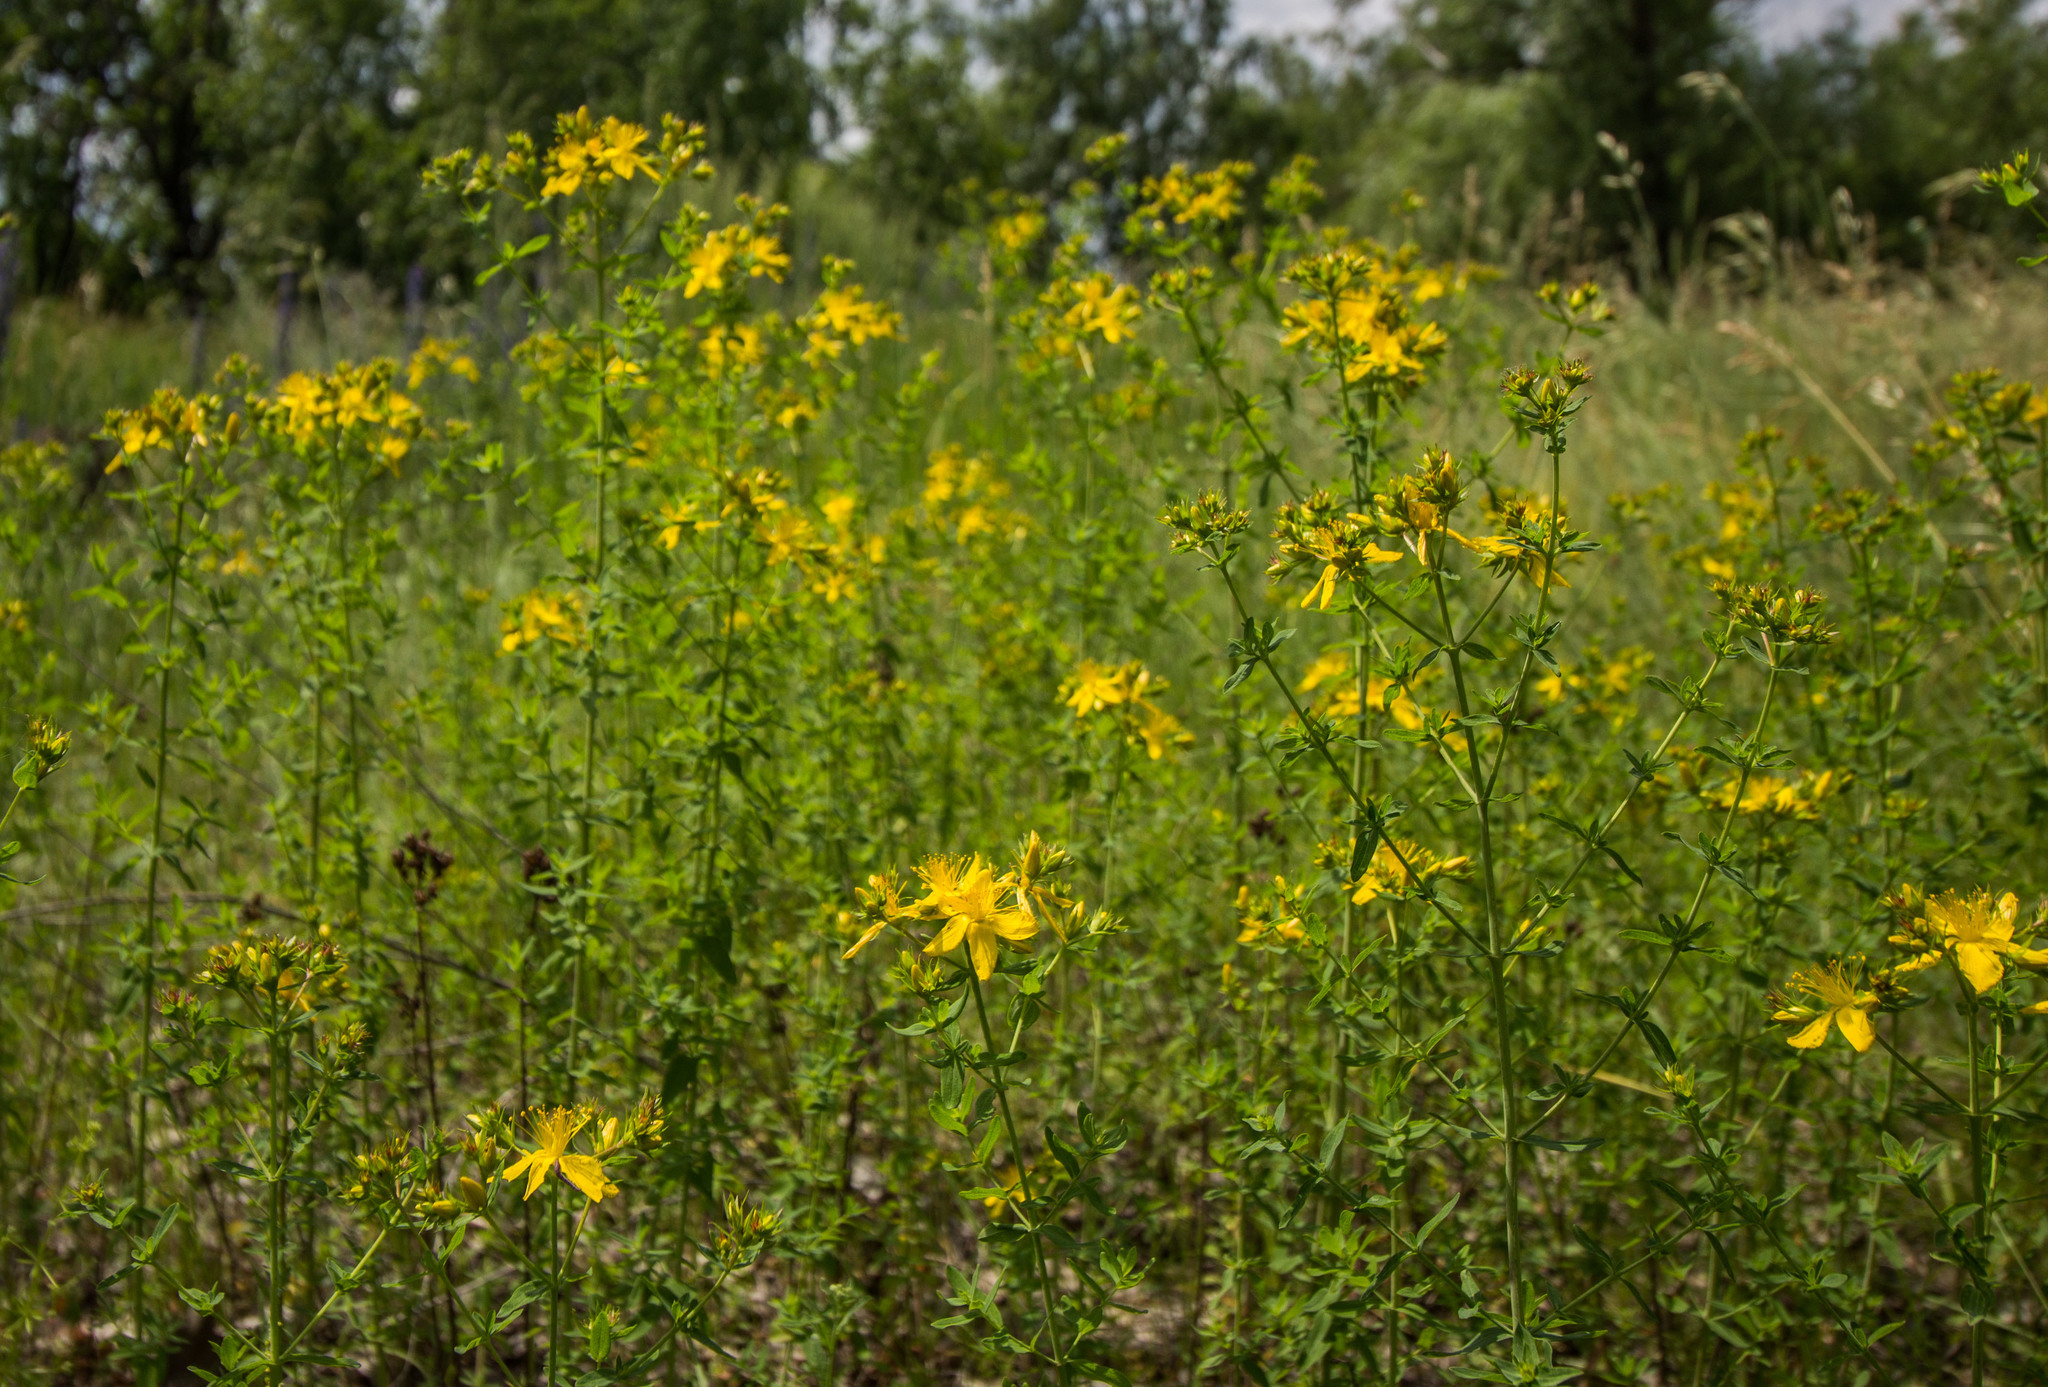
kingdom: Plantae
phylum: Tracheophyta
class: Magnoliopsida
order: Malpighiales
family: Hypericaceae
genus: Hypericum
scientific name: Hypericum perforatum
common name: Common st. johnswort
